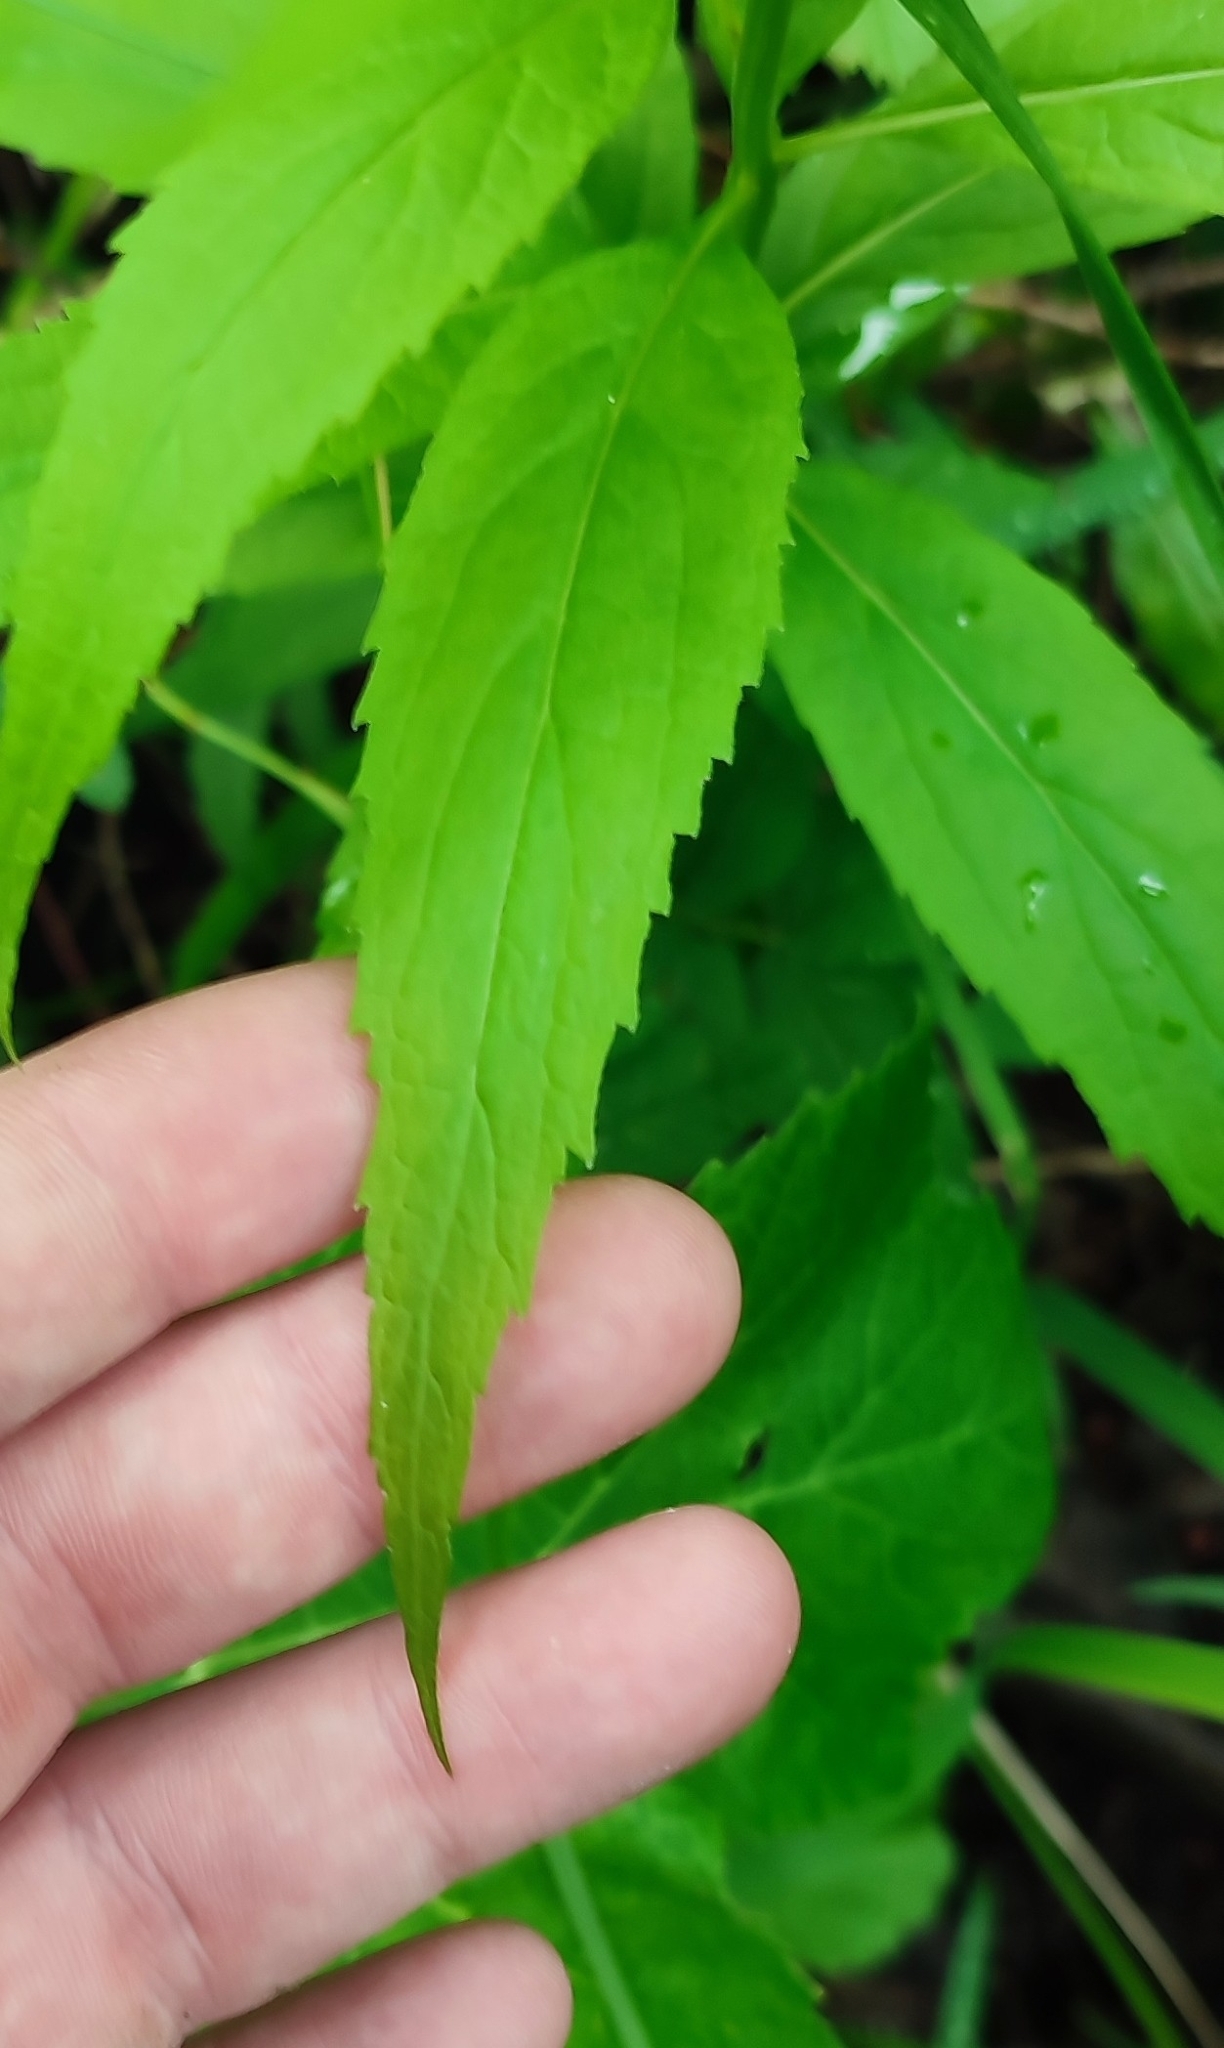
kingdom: Plantae
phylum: Tracheophyta
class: Magnoliopsida
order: Asterales
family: Campanulaceae
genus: Adenophora
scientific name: Adenophora liliifolia
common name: Lilyleaf ladybells
